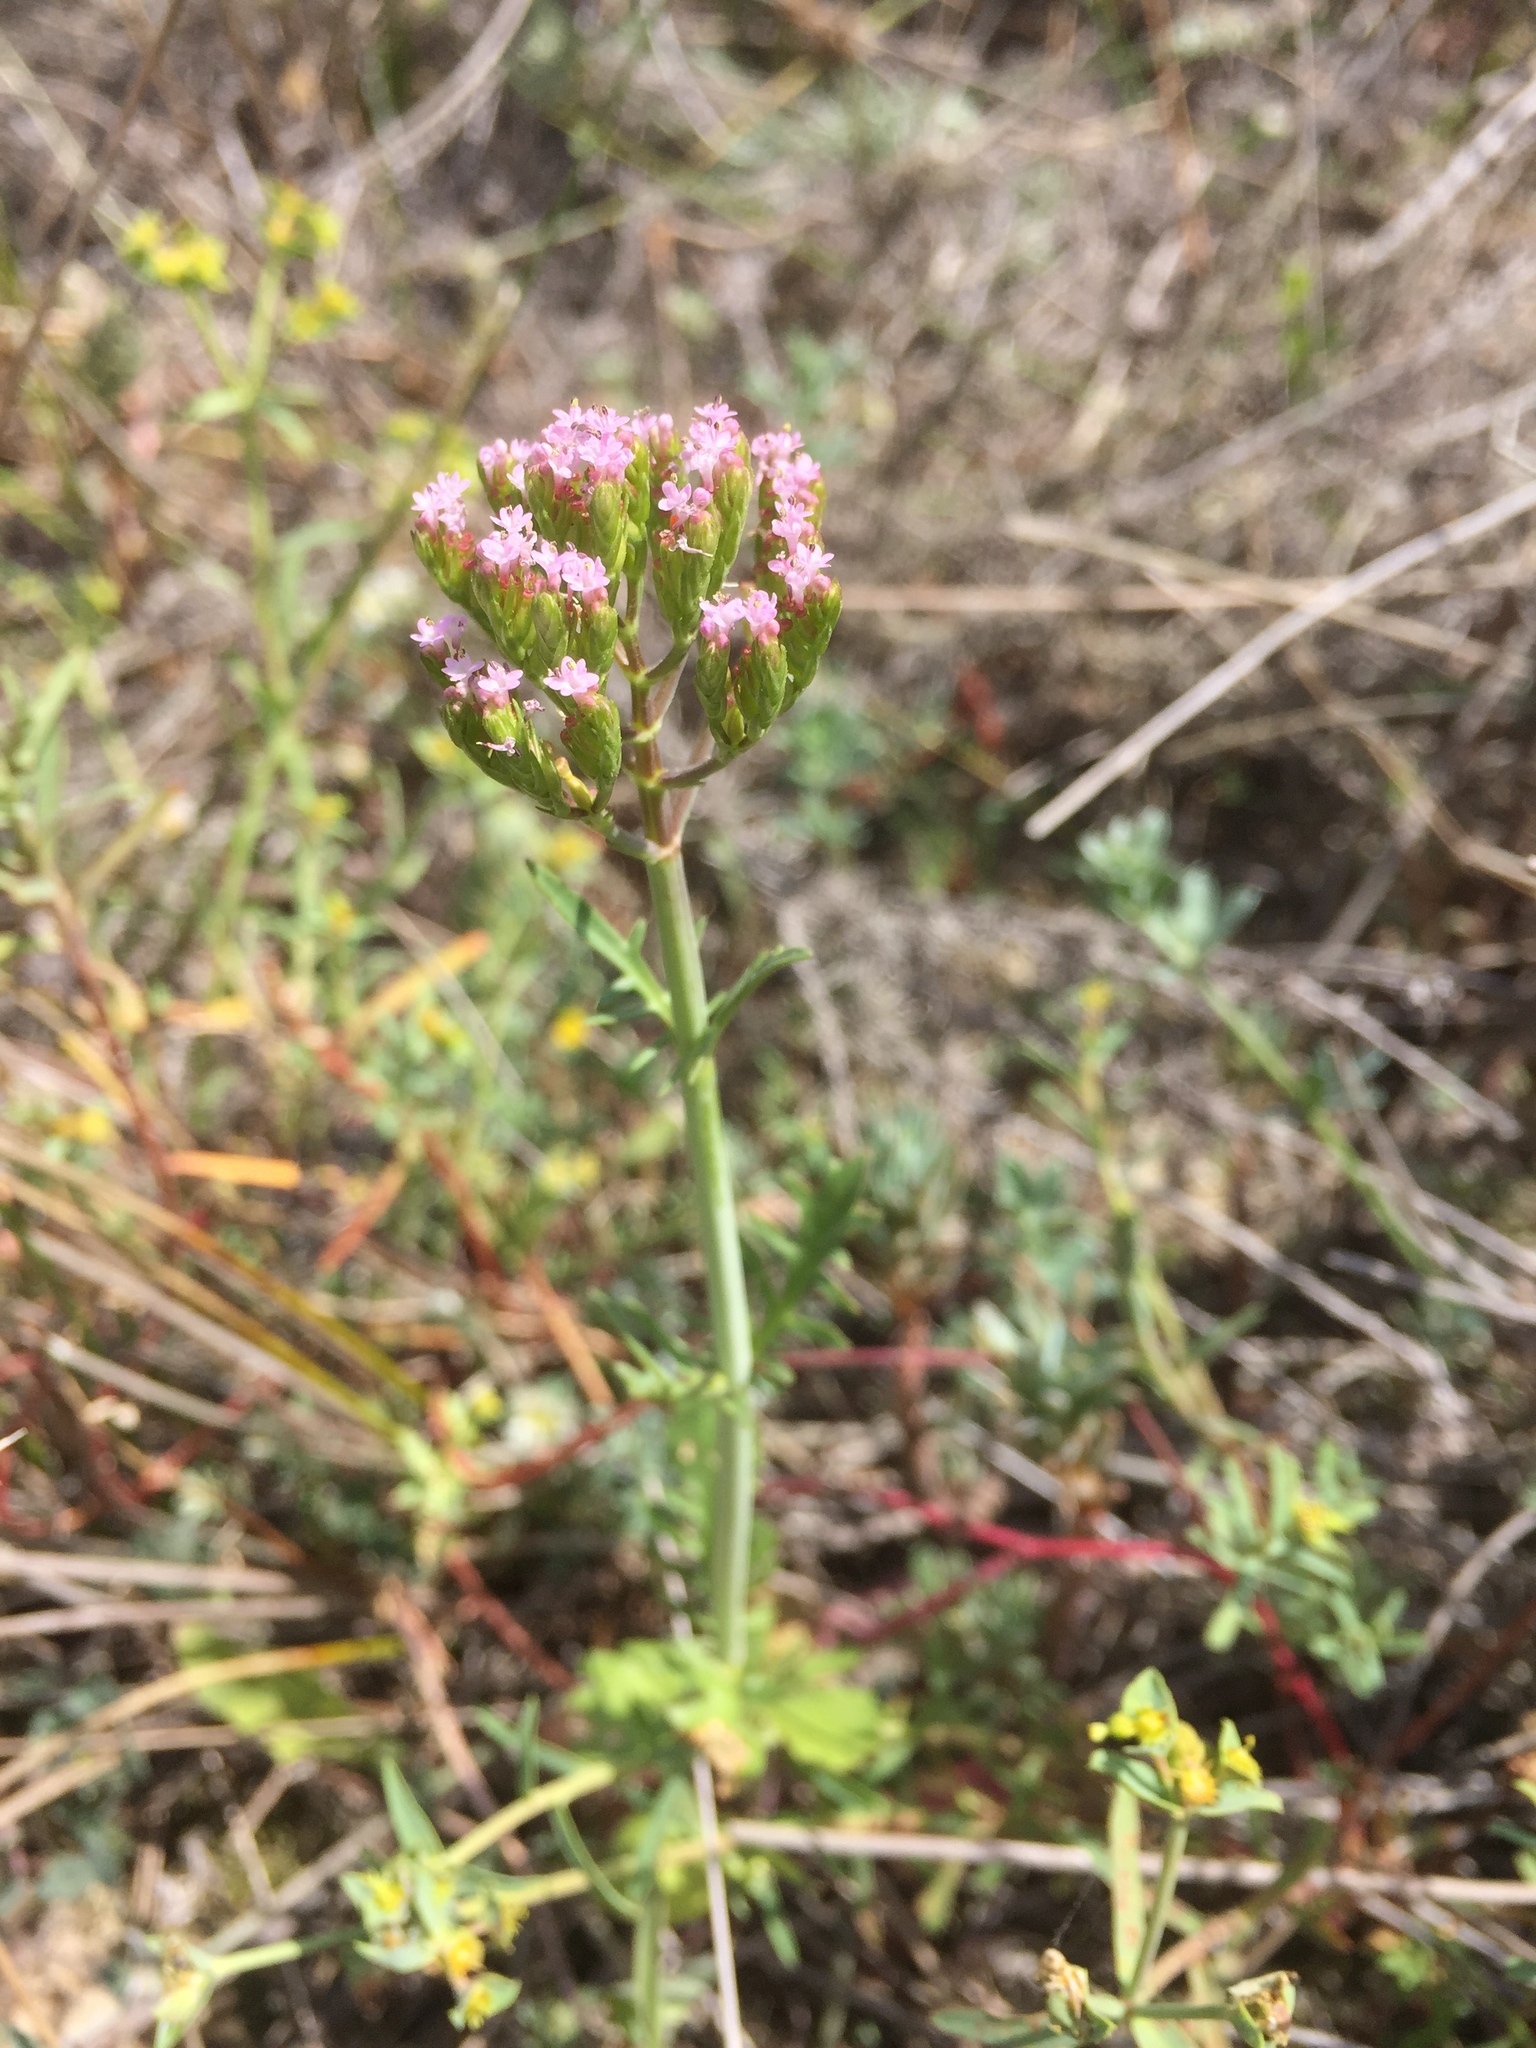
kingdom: Plantae
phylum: Tracheophyta
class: Magnoliopsida
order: Dipsacales
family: Caprifoliaceae
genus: Centranthus
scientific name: Centranthus calcitrapae
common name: Annual valerian
